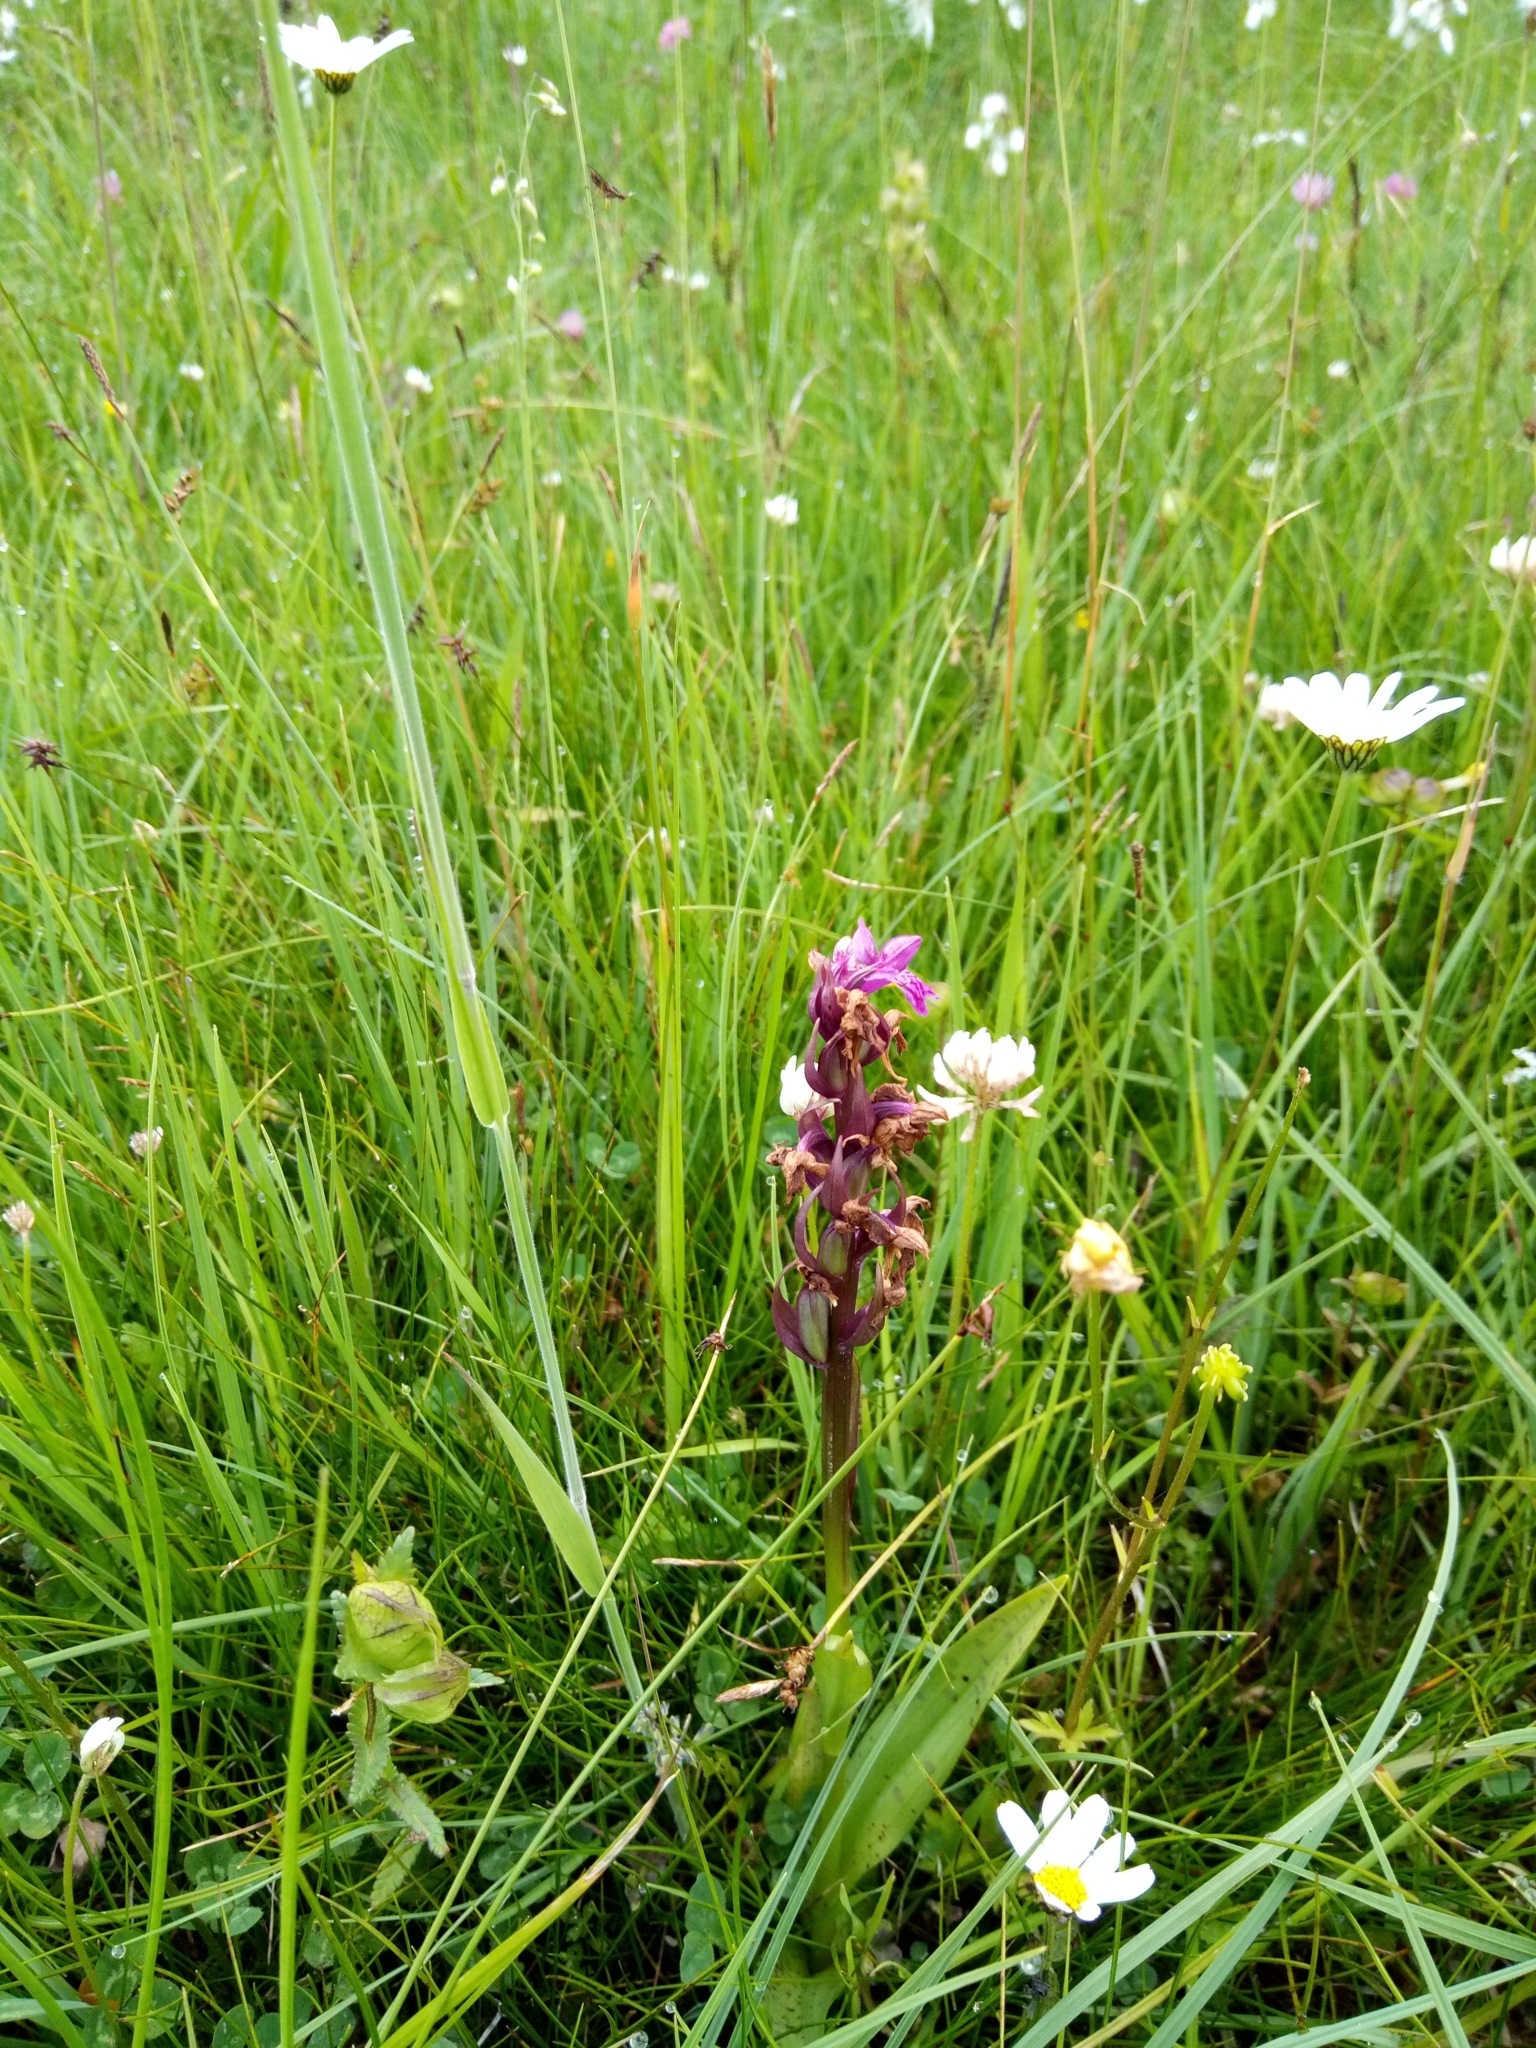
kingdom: Plantae
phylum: Tracheophyta
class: Liliopsida
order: Asparagales
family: Orchidaceae
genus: Dactylorhiza
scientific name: Dactylorhiza majalis
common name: Marsh orchid
